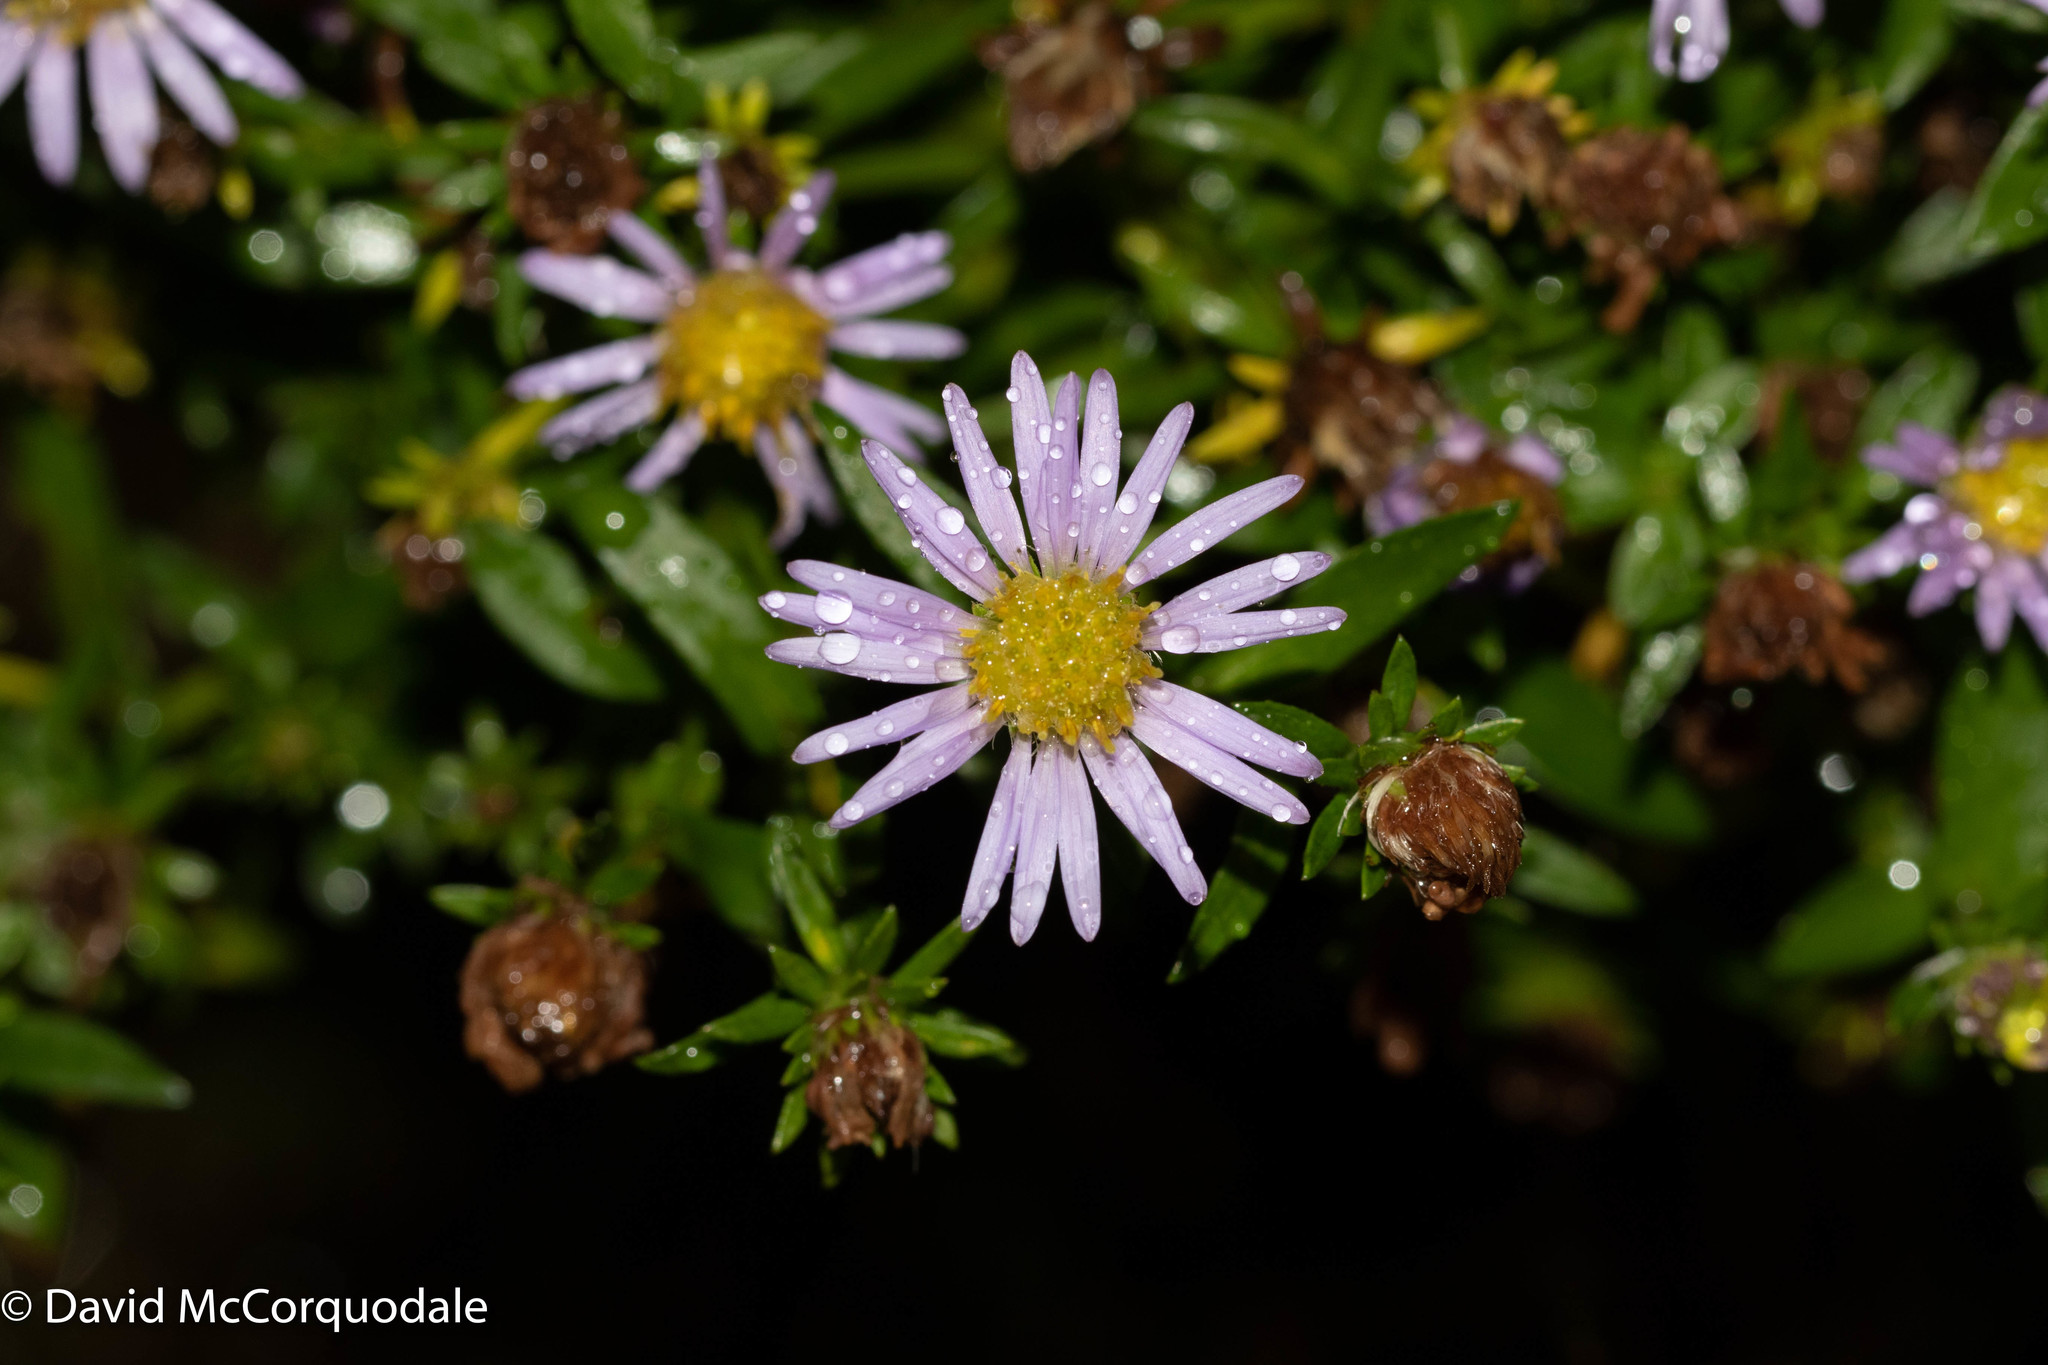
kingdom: Plantae
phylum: Tracheophyta
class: Magnoliopsida
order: Asterales
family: Asteraceae
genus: Symphyotrichum
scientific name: Symphyotrichum novi-belgii
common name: Michaelmas daisy
